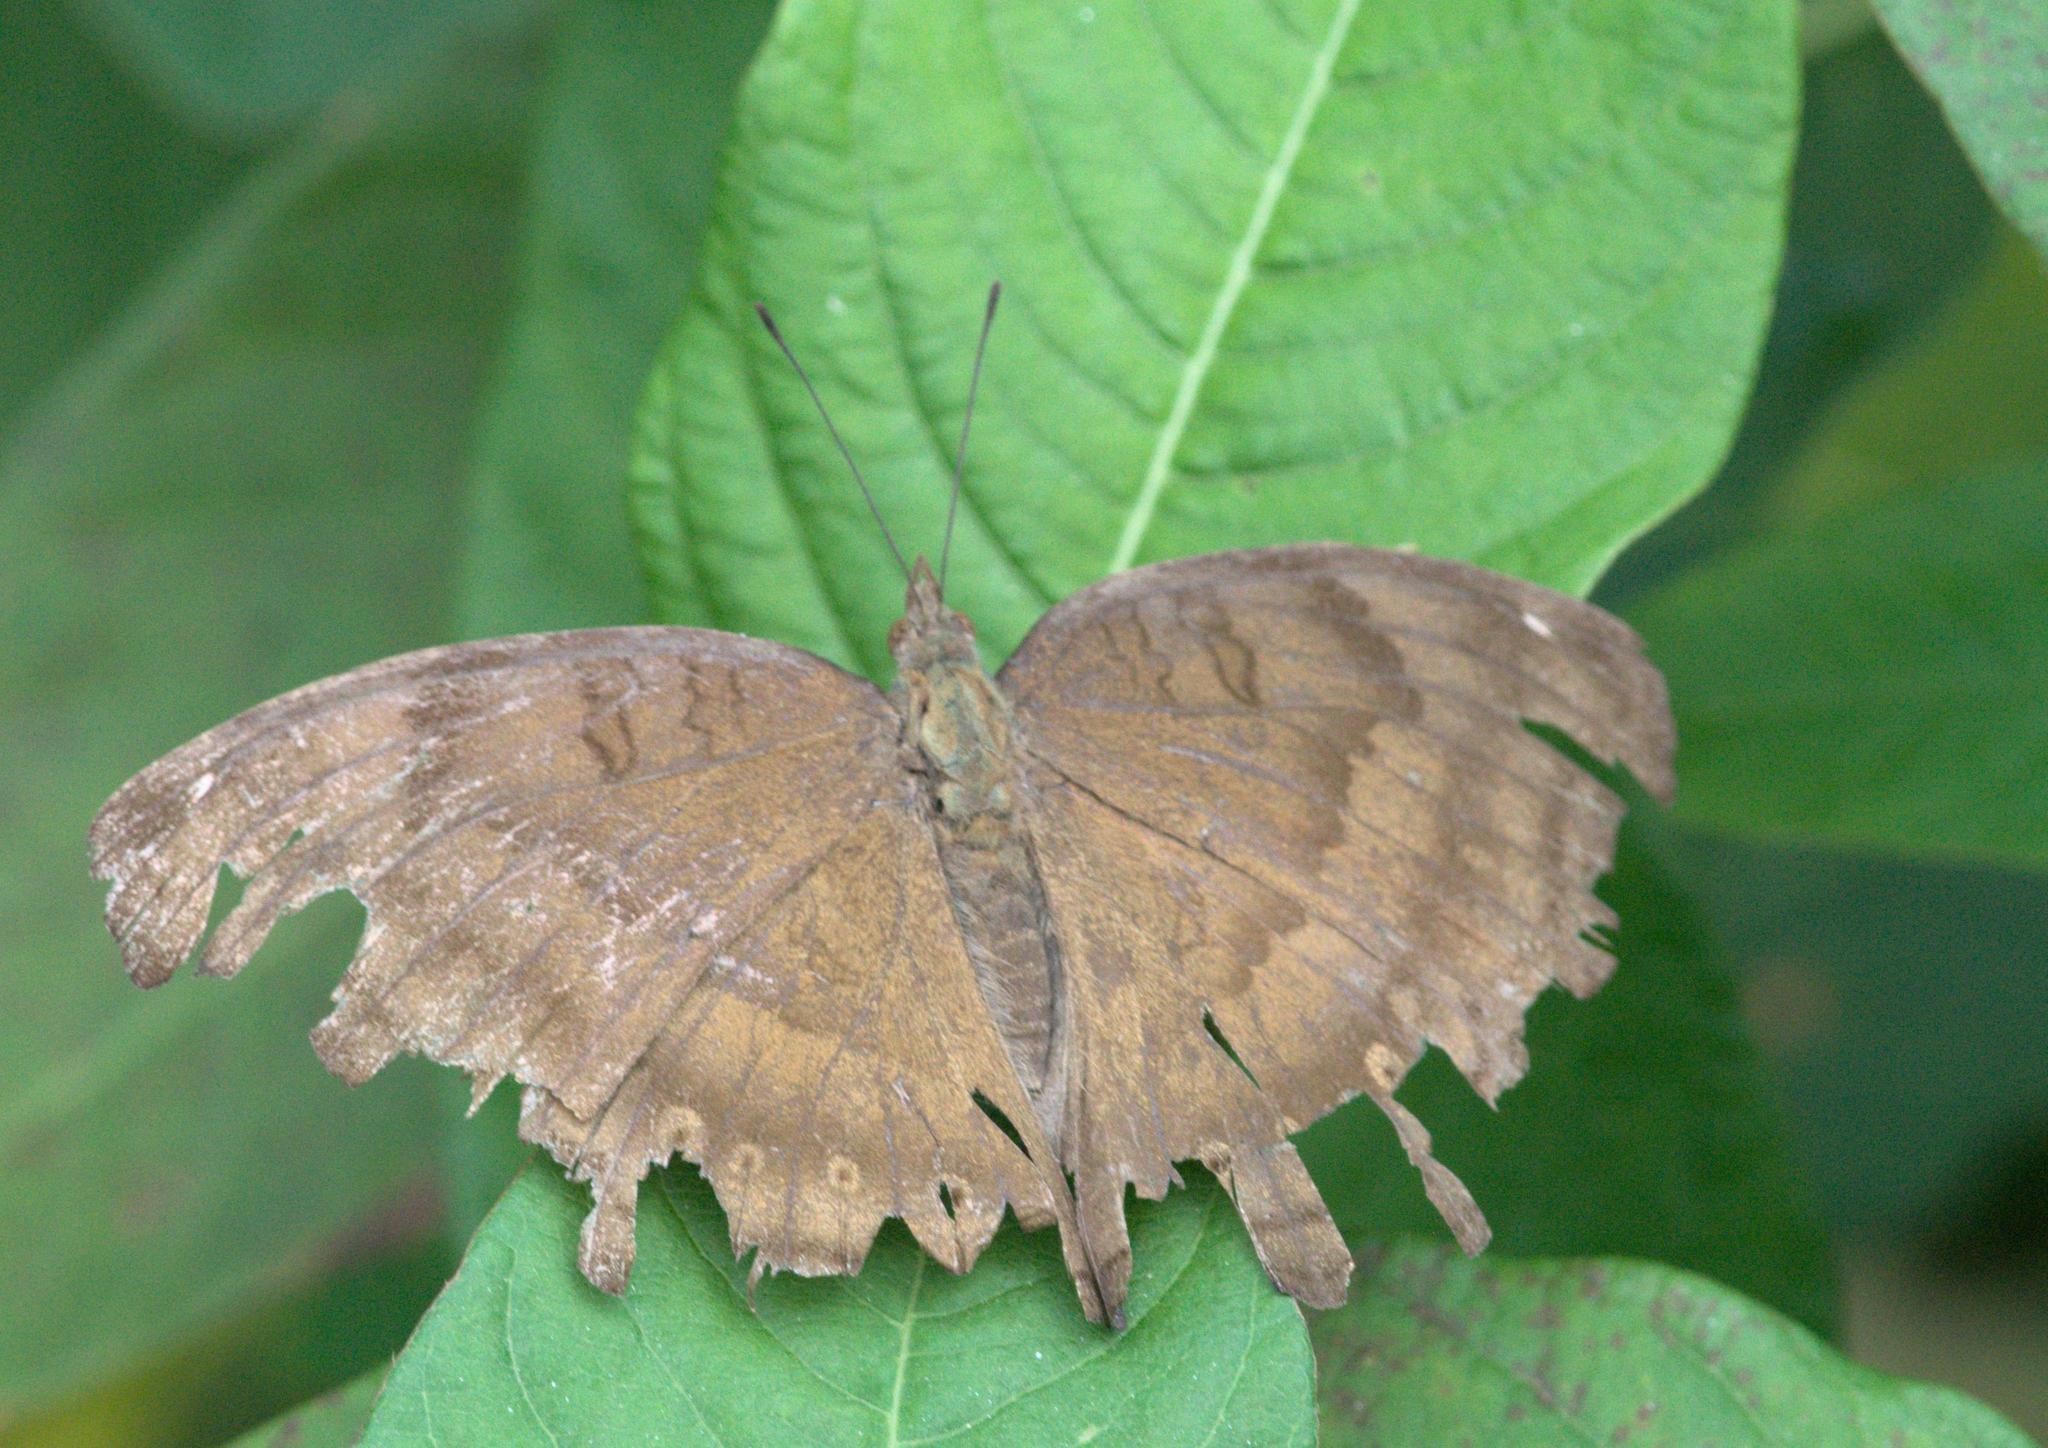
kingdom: Animalia
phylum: Arthropoda
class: Insecta
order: Lepidoptera
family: Nymphalidae
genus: Junonia
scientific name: Junonia iphita
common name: Chocolate pansy
